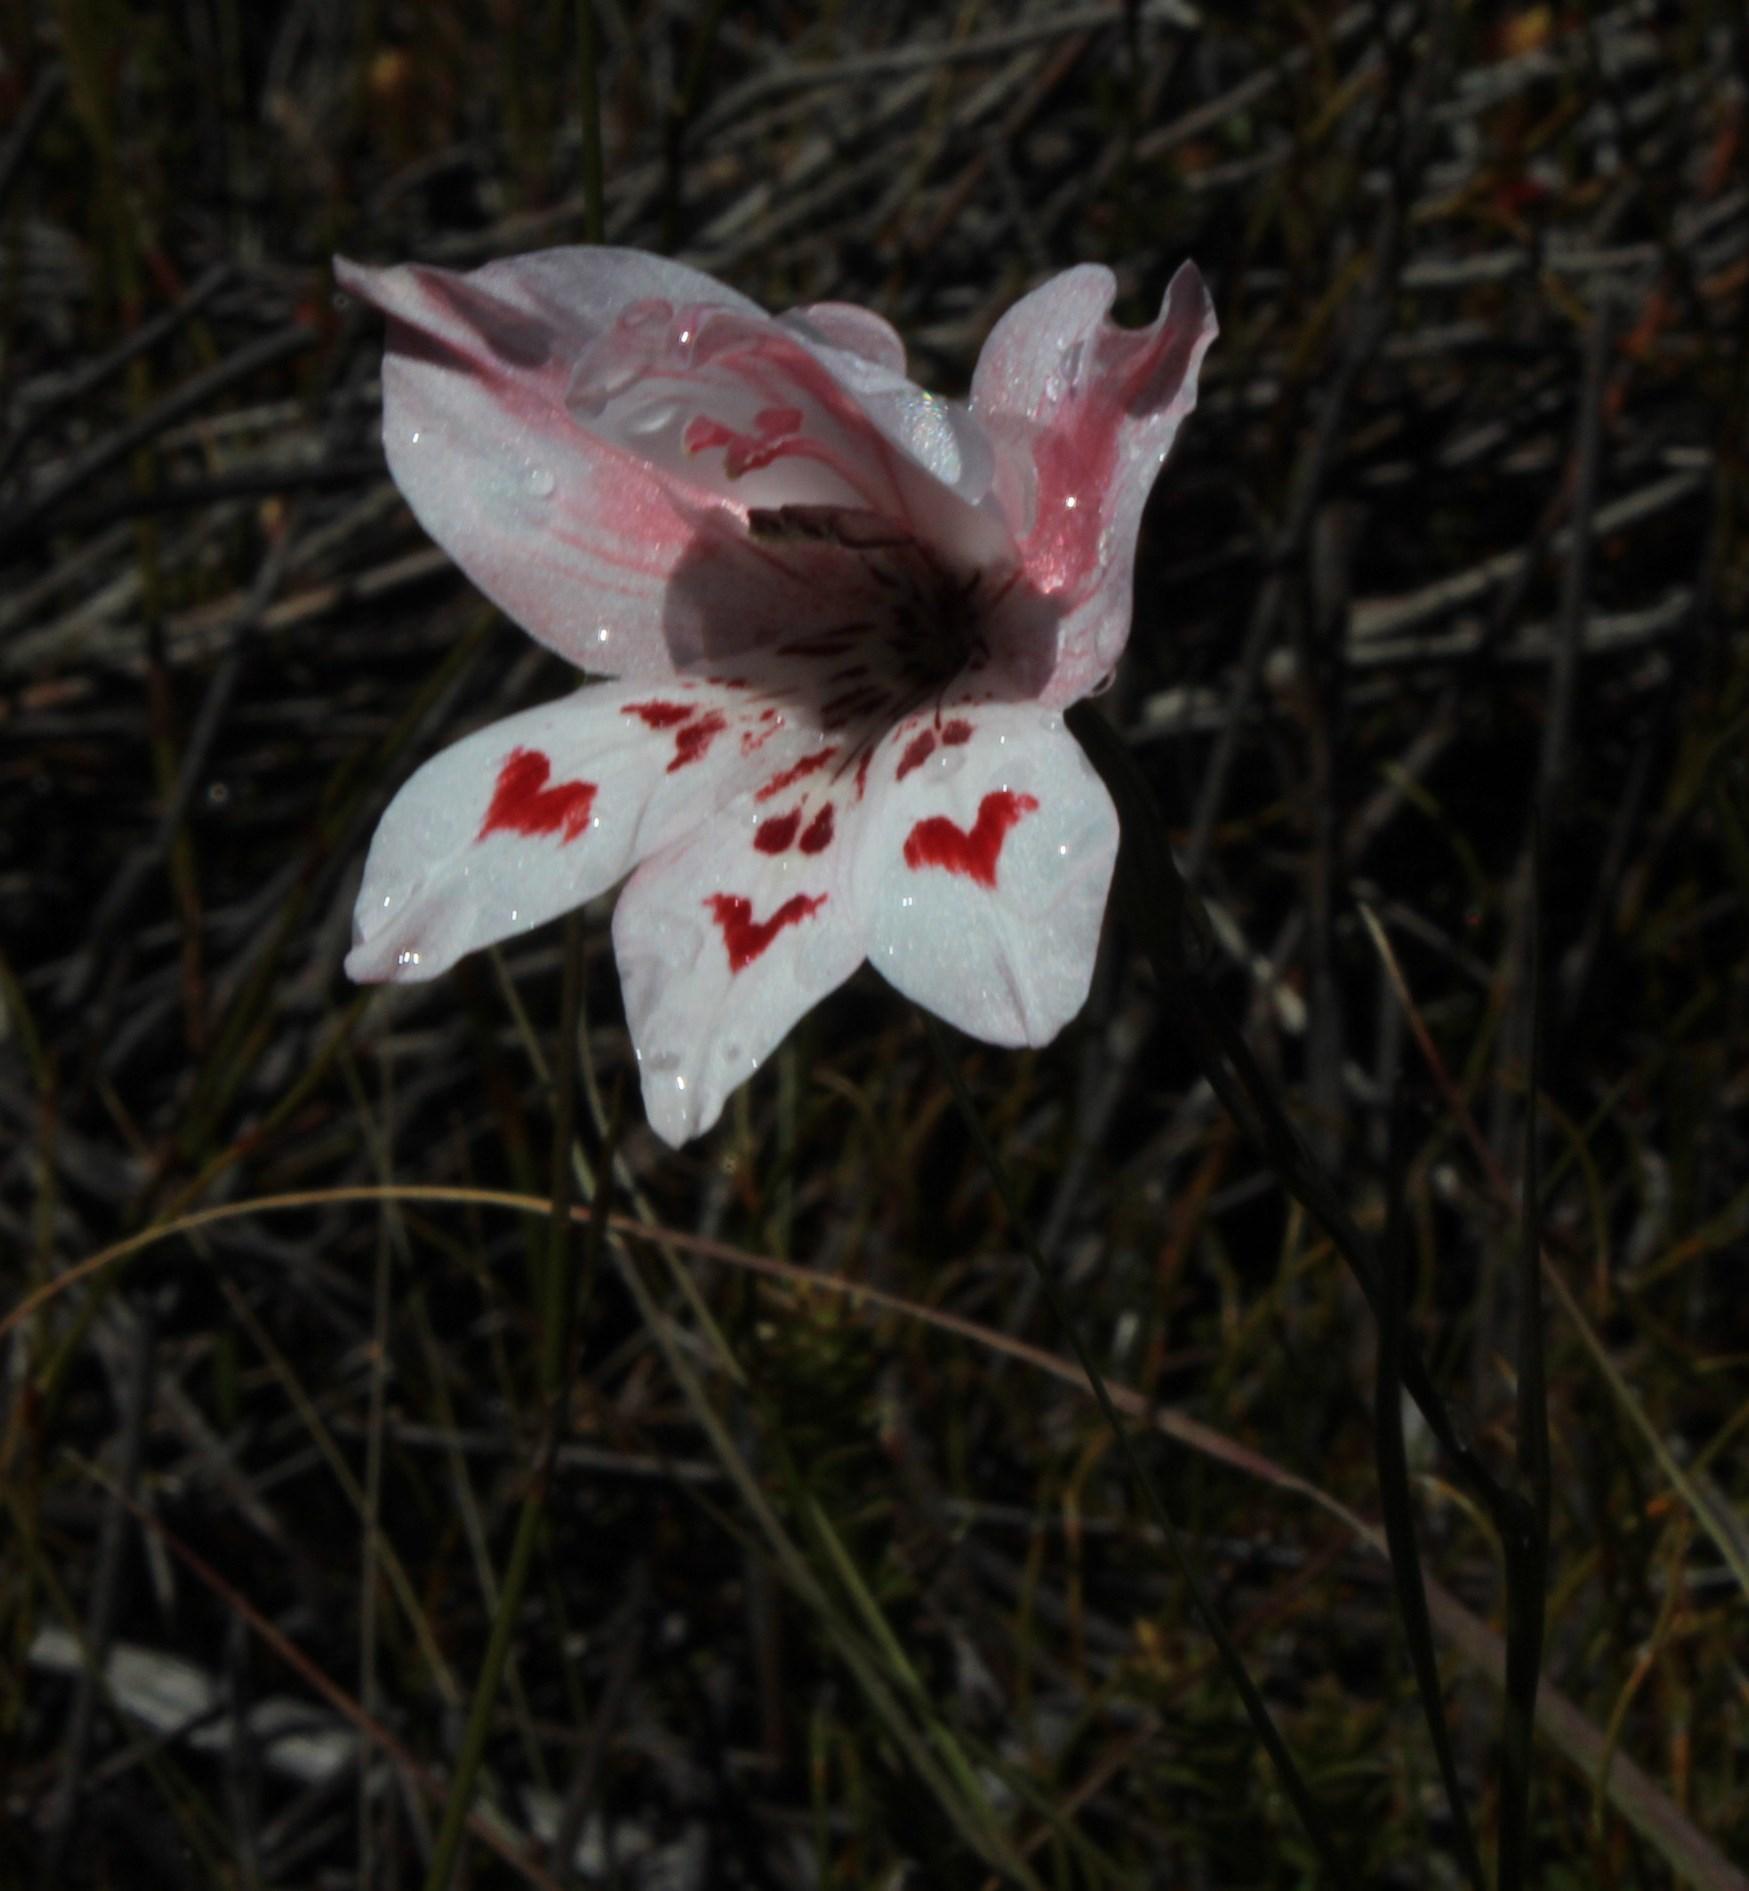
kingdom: Plantae
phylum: Tracheophyta
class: Liliopsida
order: Asparagales
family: Iridaceae
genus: Gladiolus
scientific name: Gladiolus debilis
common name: Painted-lady
